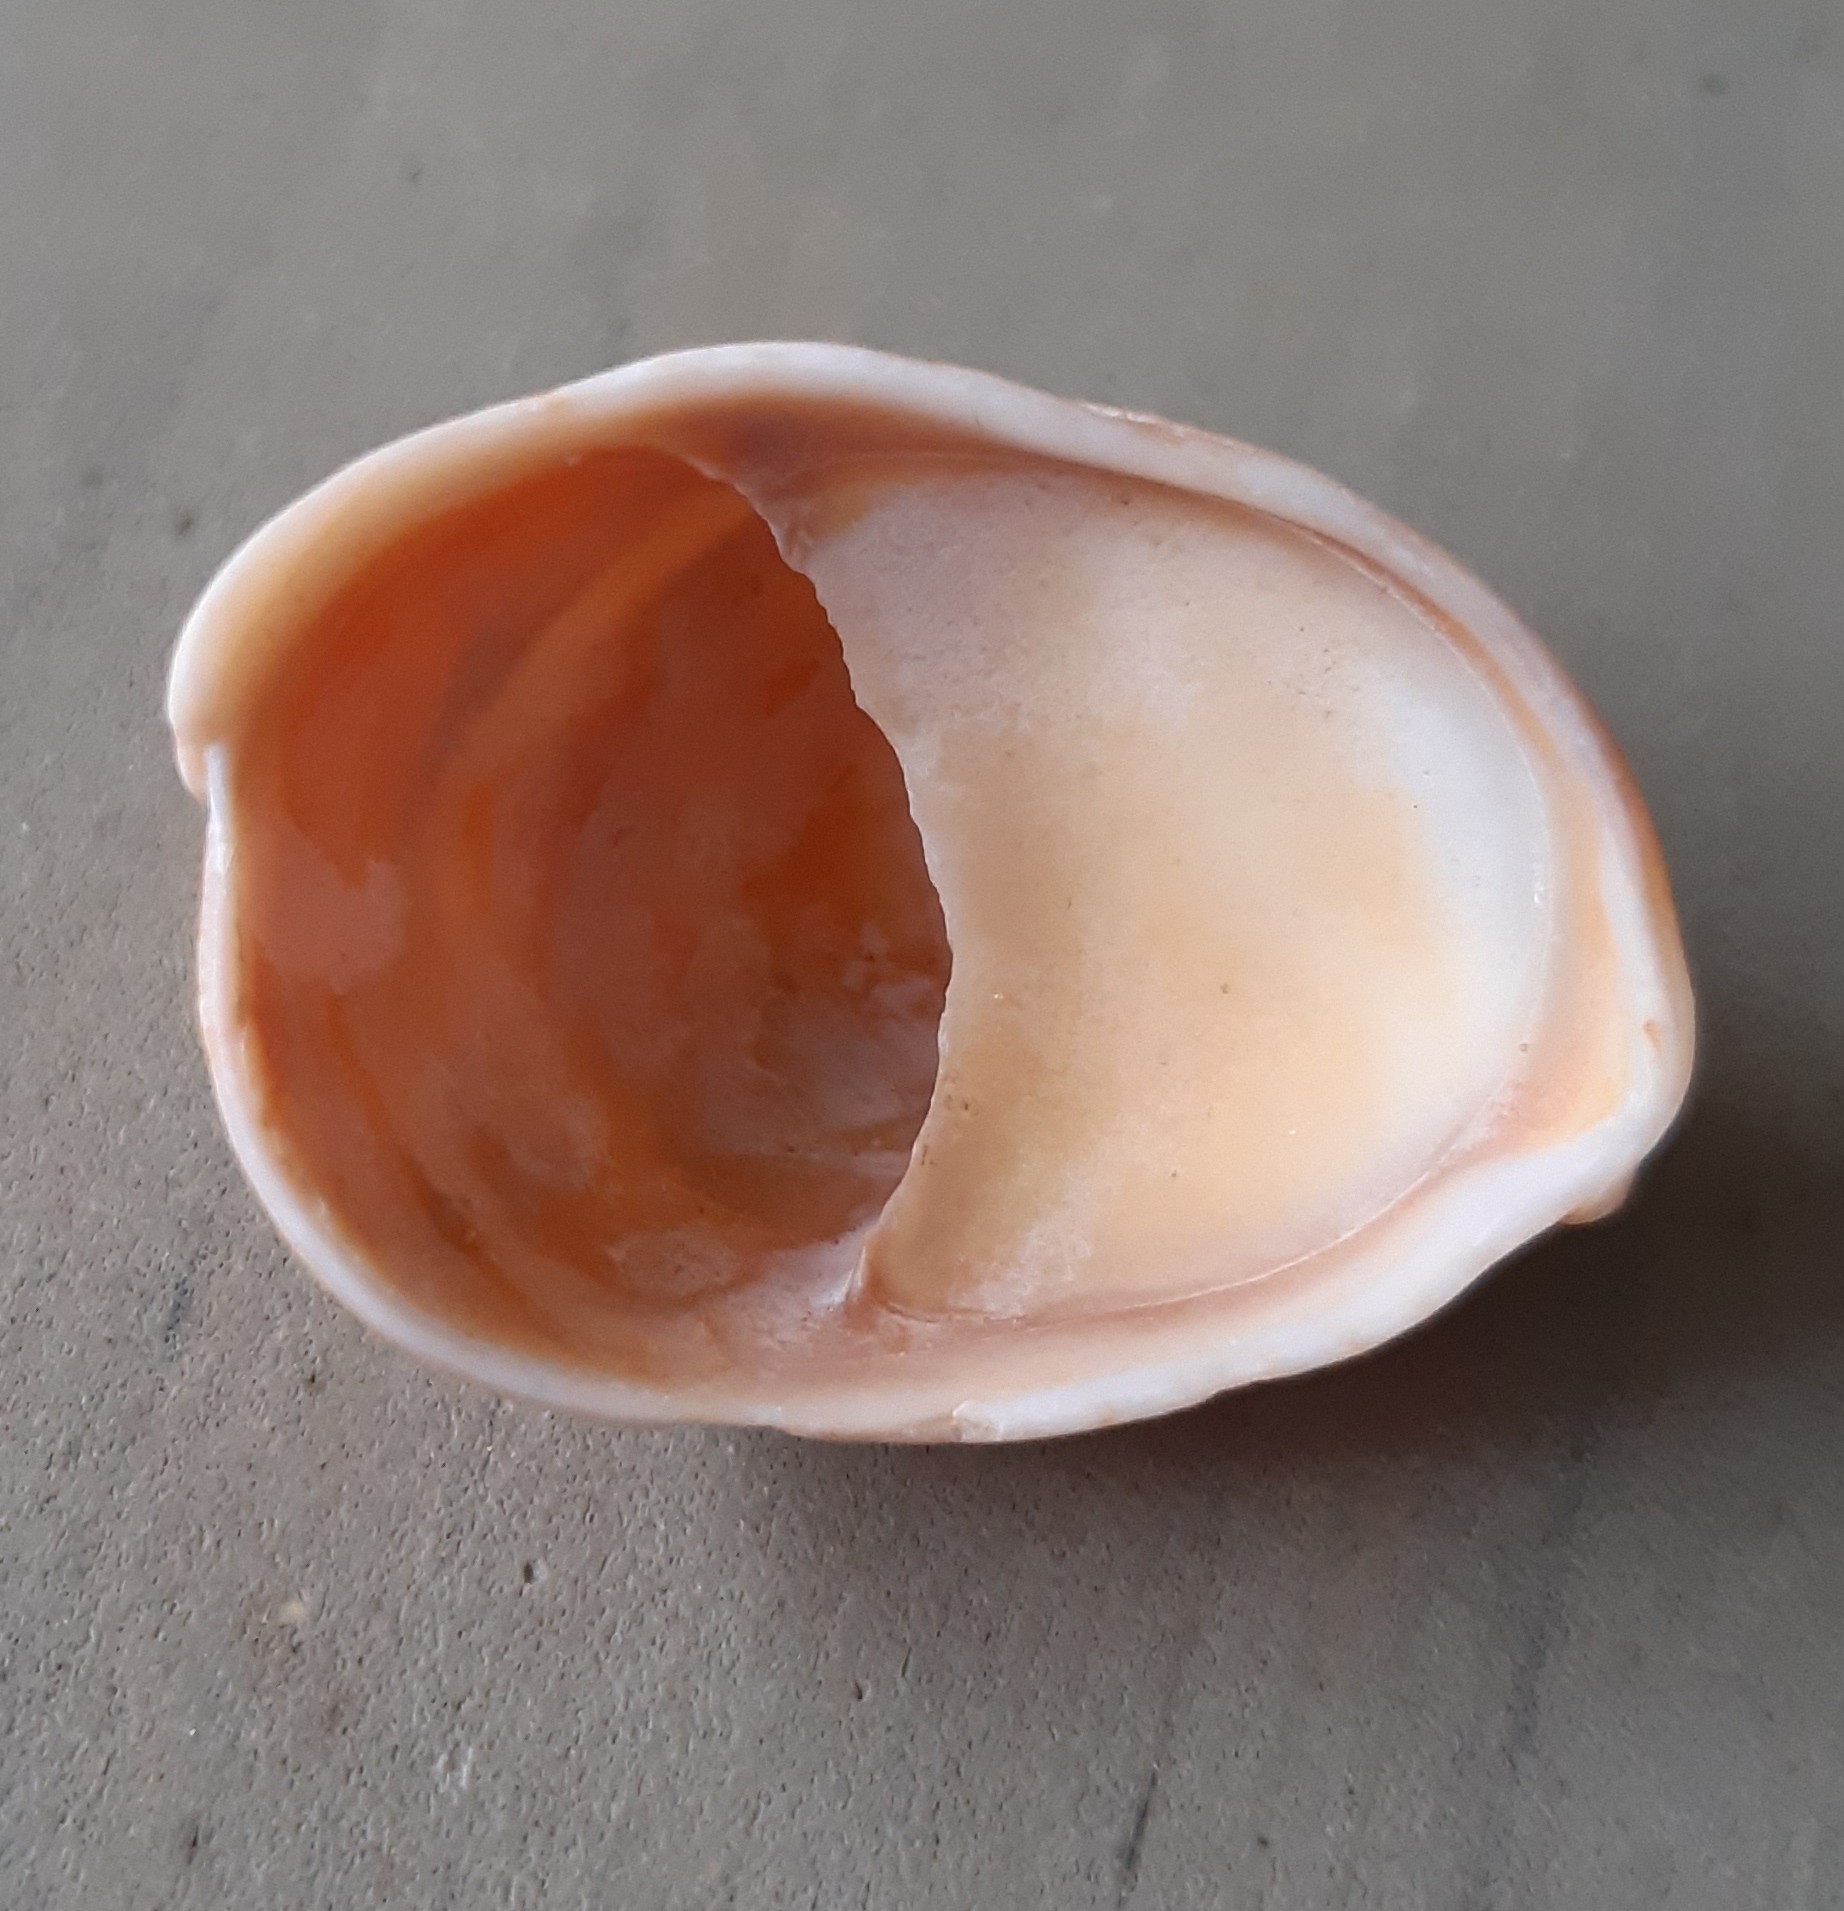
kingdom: Animalia
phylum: Mollusca
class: Gastropoda
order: Littorinimorpha
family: Calyptraeidae
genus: Crepidula
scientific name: Crepidula fornicata
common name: Slipper limpet
